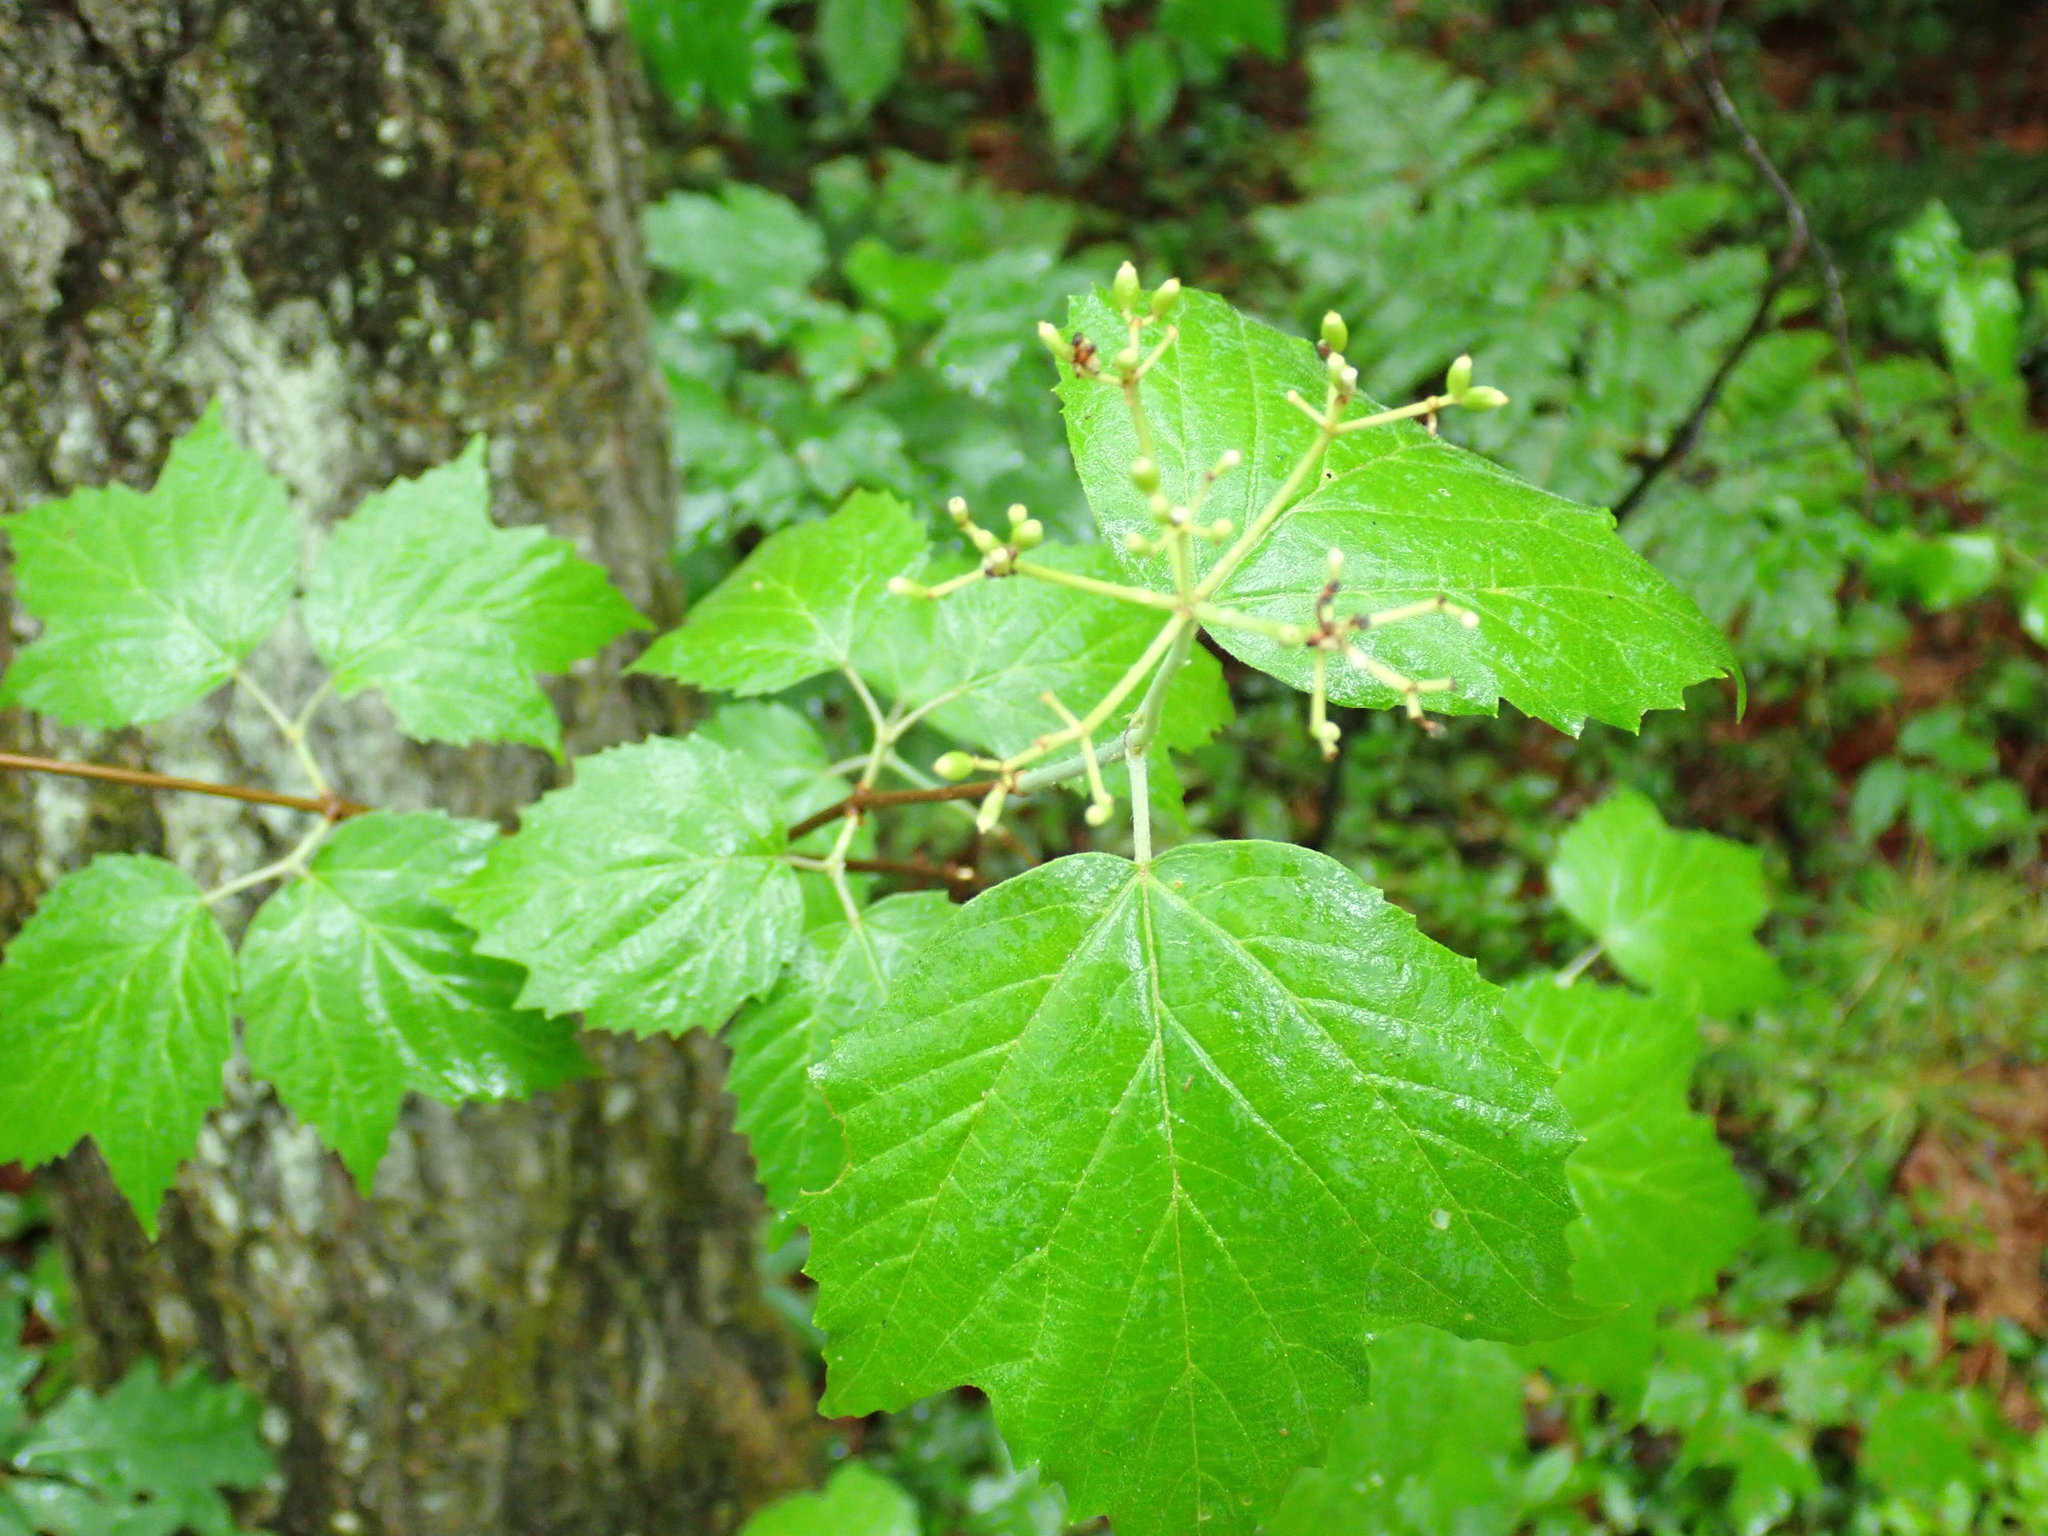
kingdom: Plantae
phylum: Tracheophyta
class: Magnoliopsida
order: Dipsacales
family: Viburnaceae
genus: Viburnum
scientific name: Viburnum acerifolium
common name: Dockmackie
